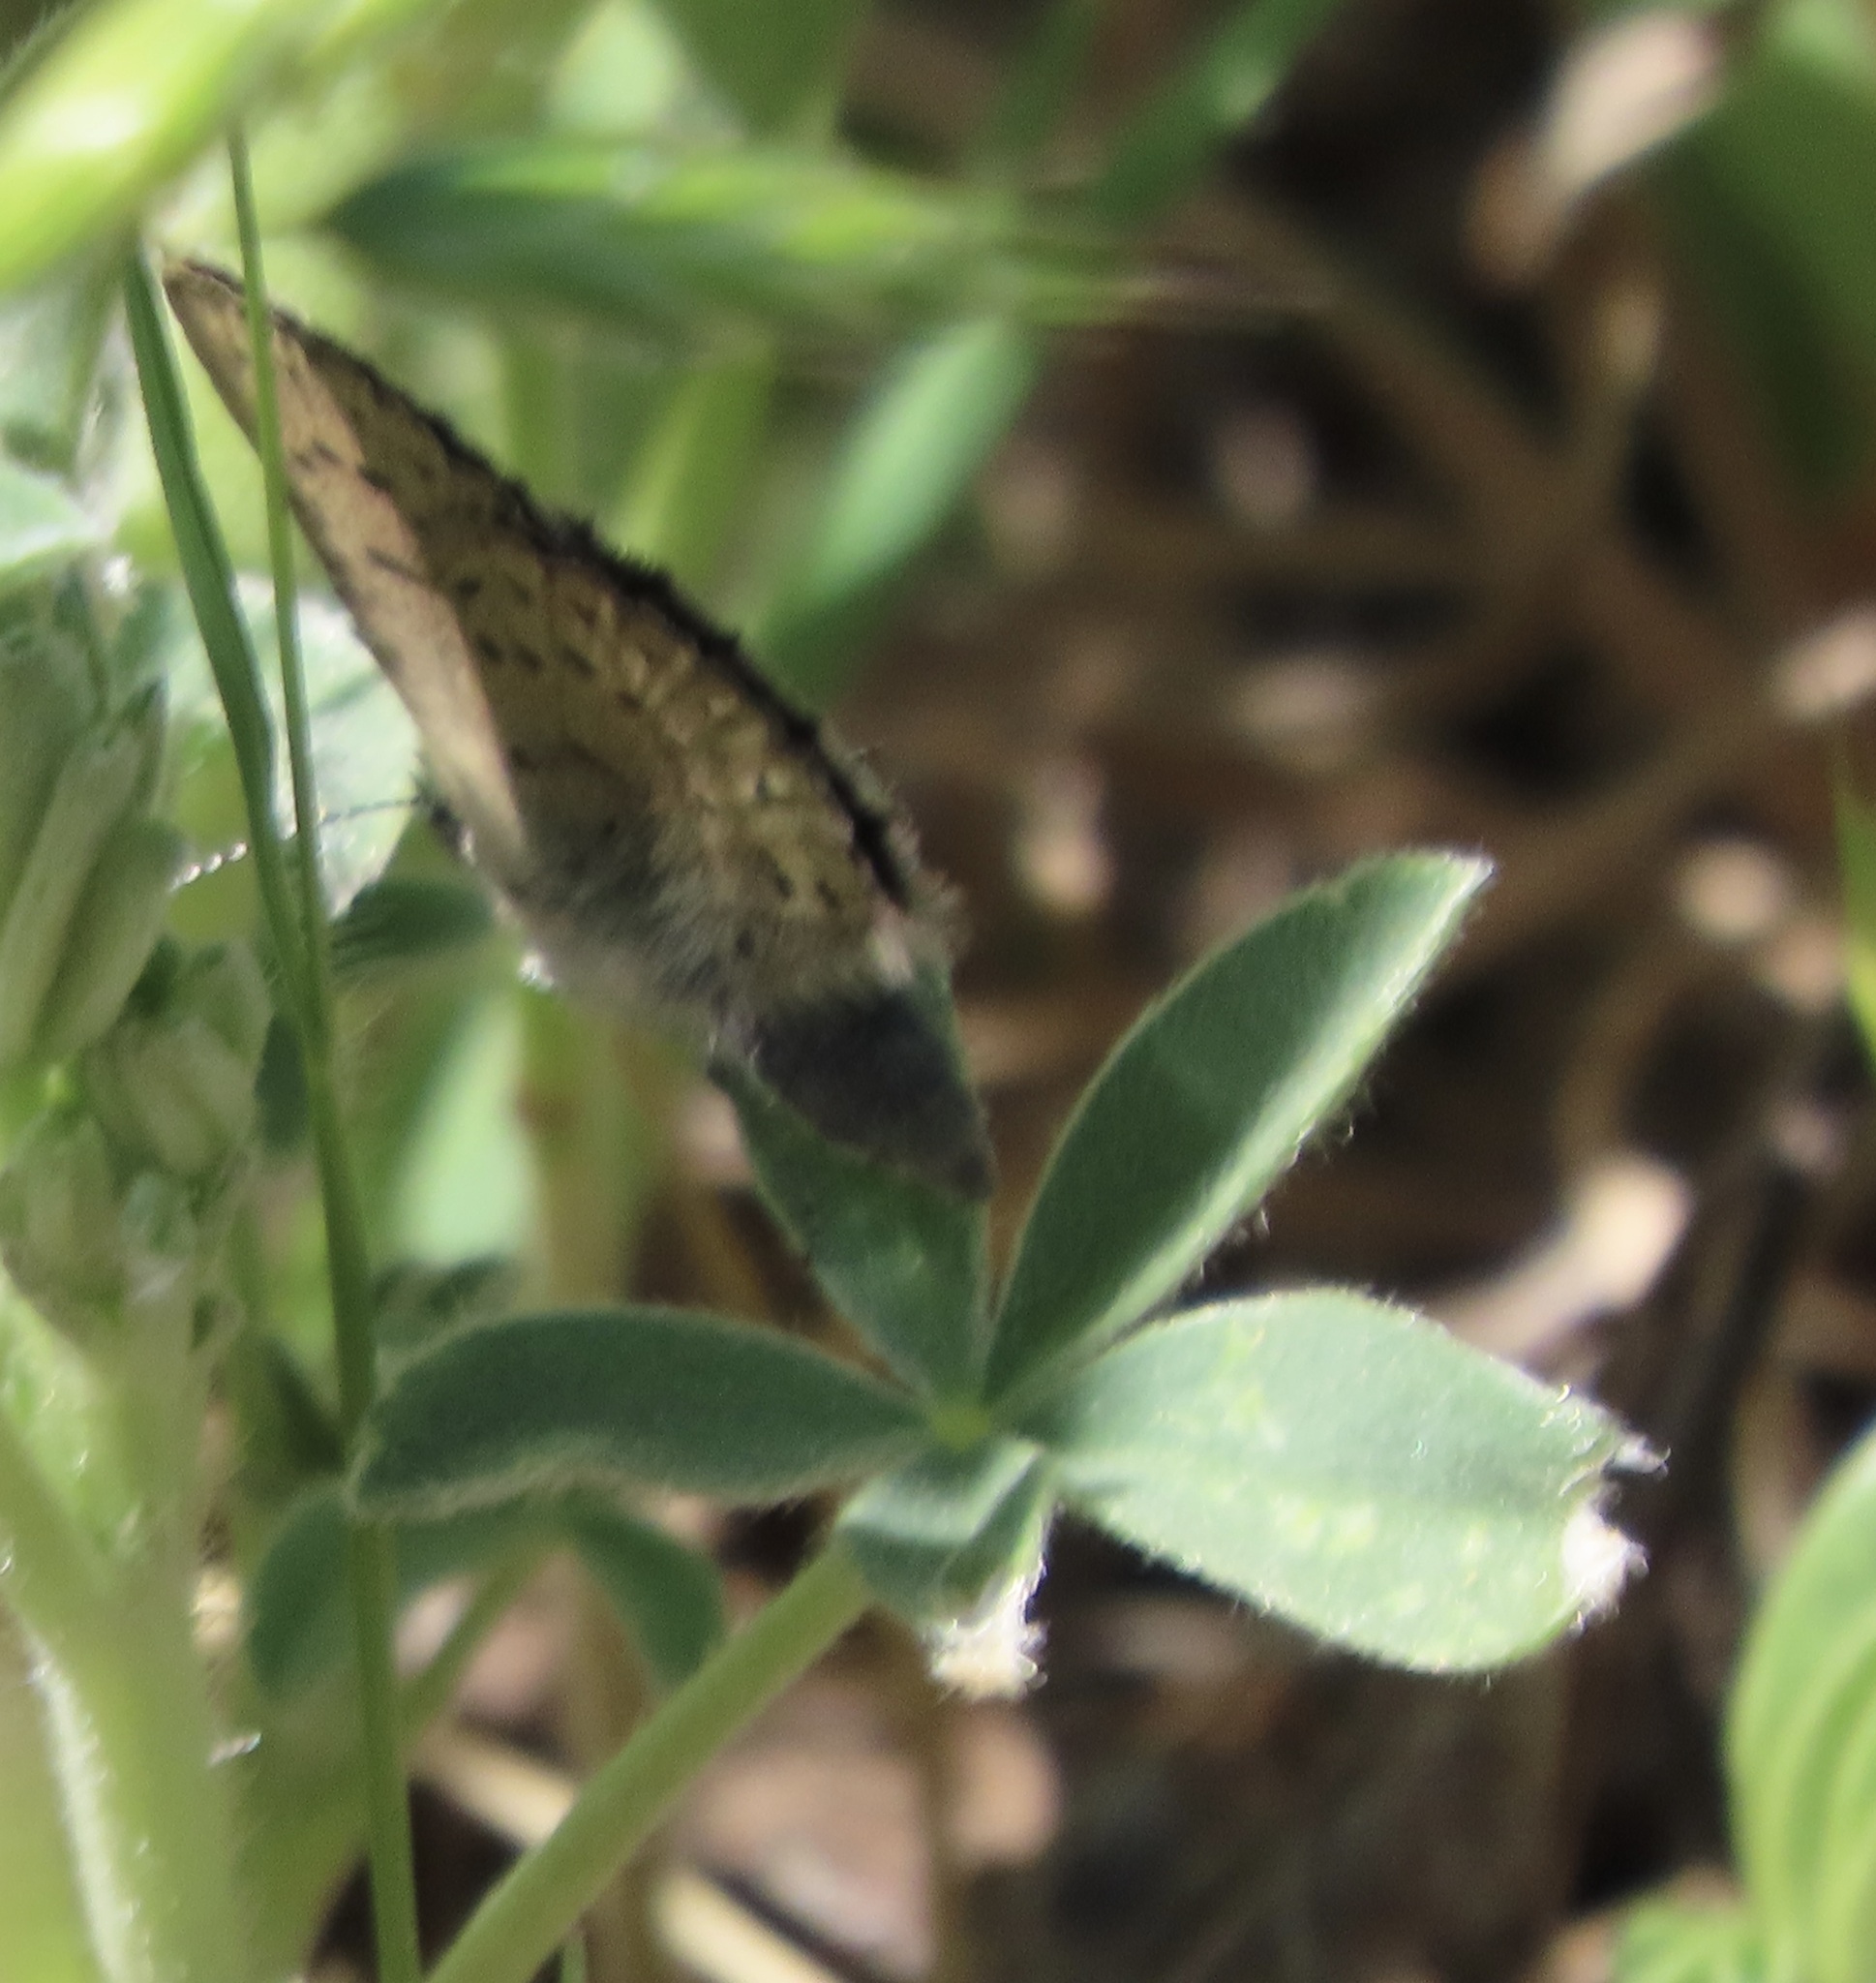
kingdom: Animalia
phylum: Arthropoda
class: Insecta
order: Lepidoptera
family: Lycaenidae
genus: Icaricia
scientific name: Icaricia icarioides
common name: Boisduval's blue
